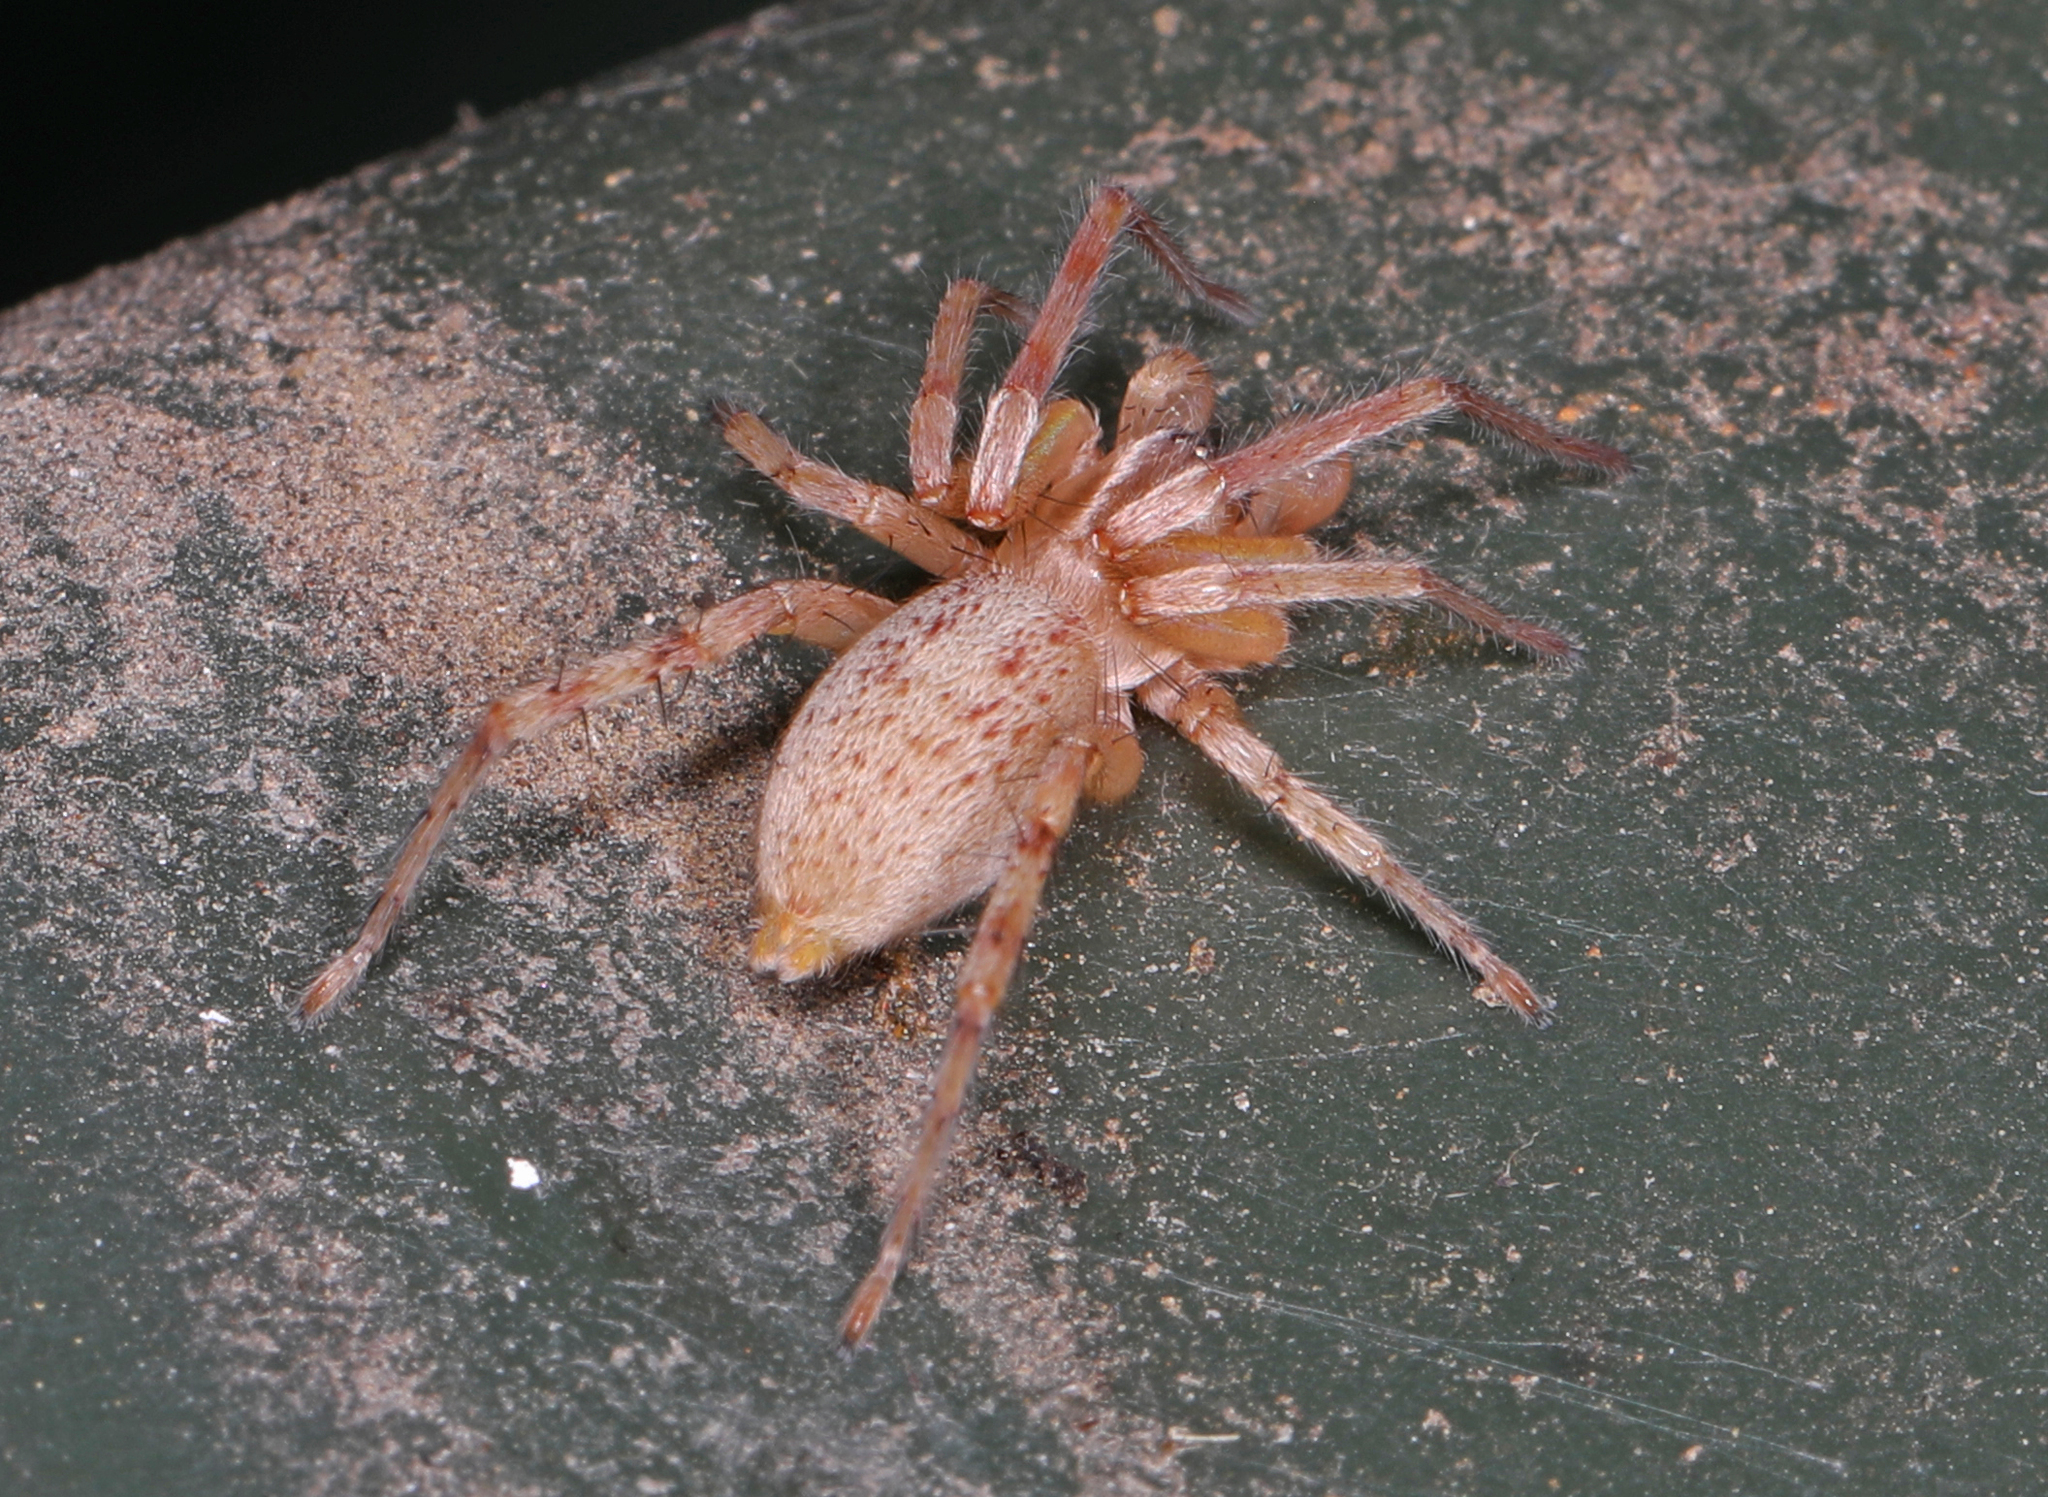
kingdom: Animalia
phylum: Arthropoda
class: Arachnida
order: Araneae
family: Anyphaenidae
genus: Hibana
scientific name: Hibana gracilis
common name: Garden ghost spider
